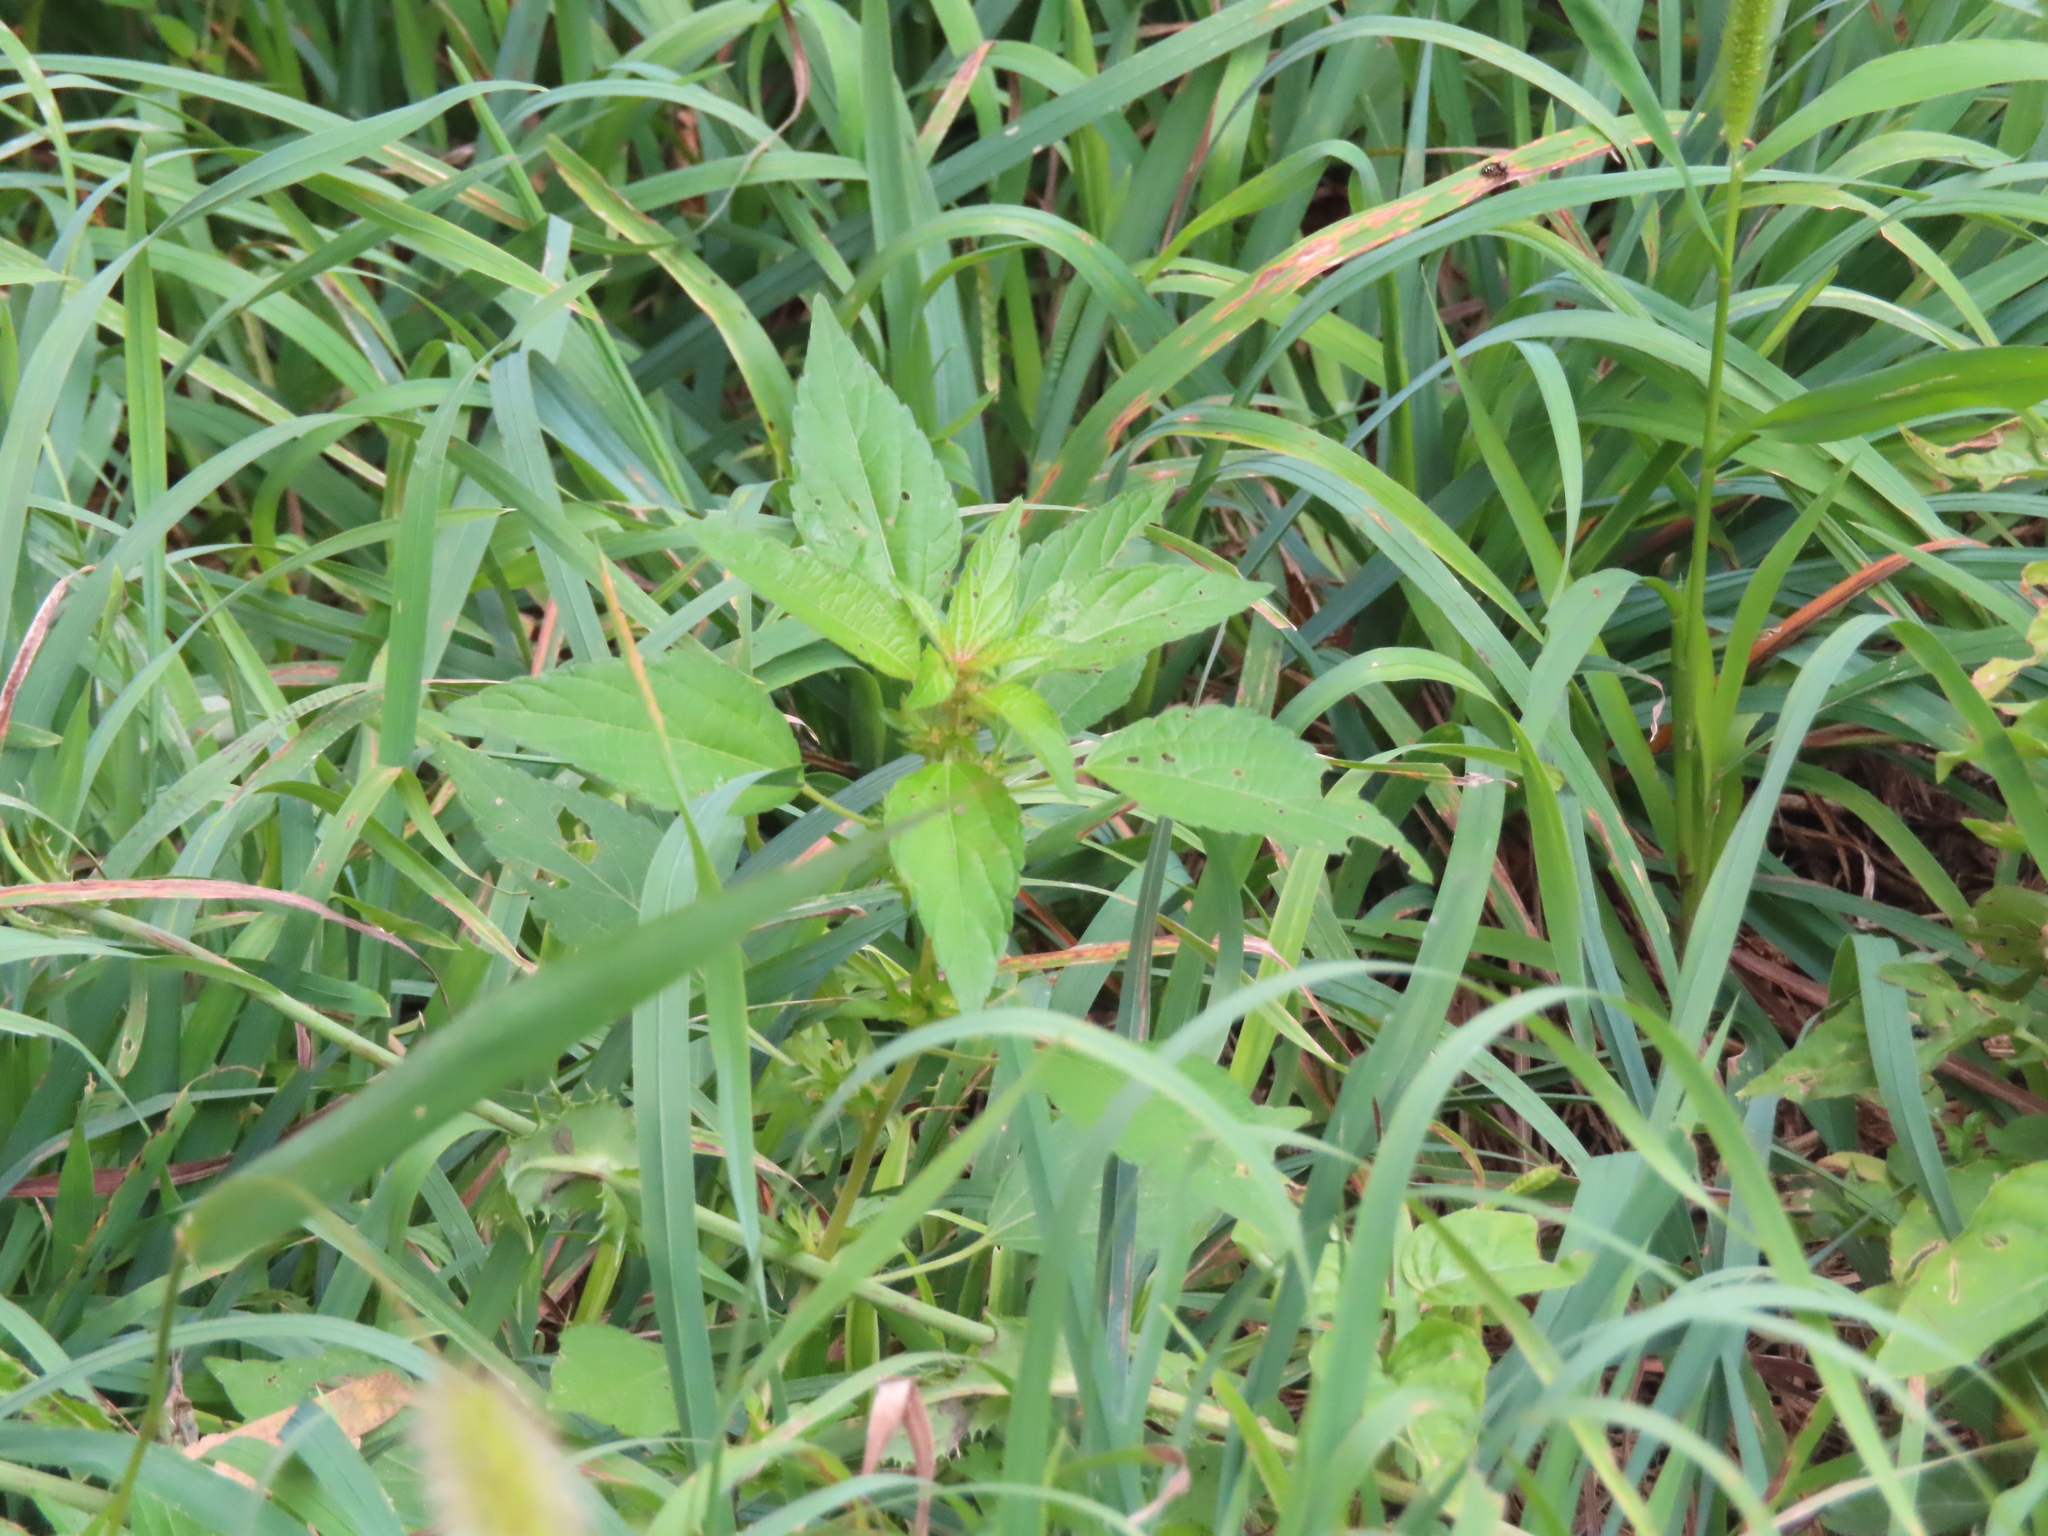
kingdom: Plantae
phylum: Tracheophyta
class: Magnoliopsida
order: Malpighiales
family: Euphorbiaceae
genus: Acalypha
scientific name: Acalypha rhomboidea
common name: Rhombic copperleaf
